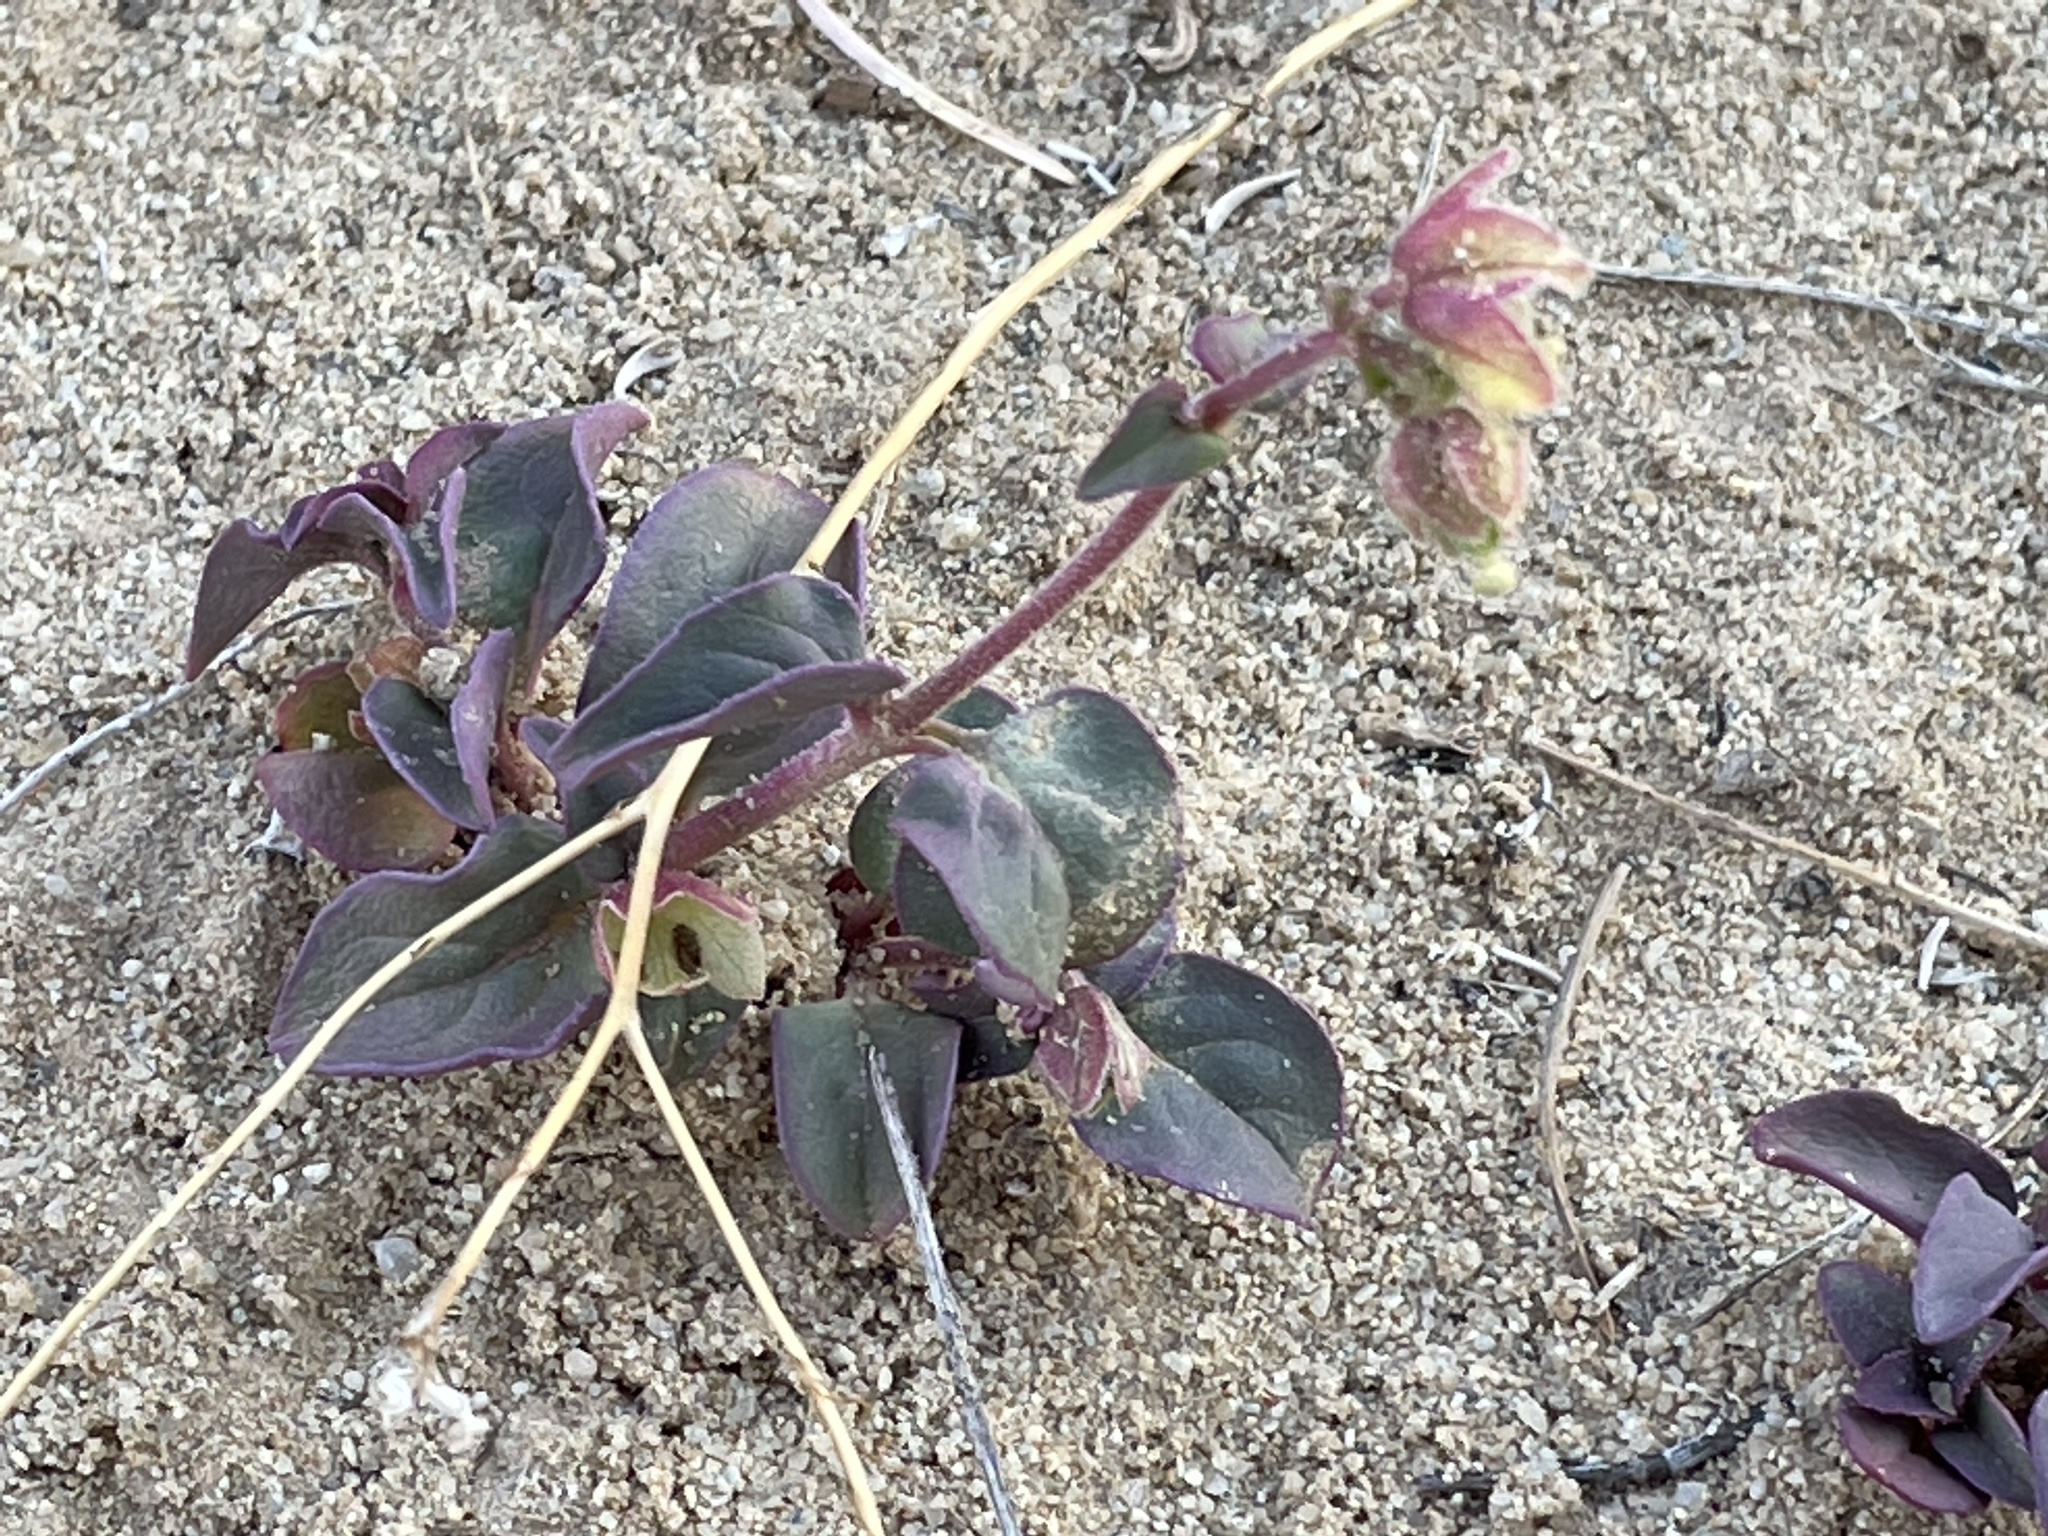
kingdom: Plantae
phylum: Tracheophyta
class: Magnoliopsida
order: Caryophyllales
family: Nyctaginaceae
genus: Mirabilis
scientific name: Mirabilis comata
